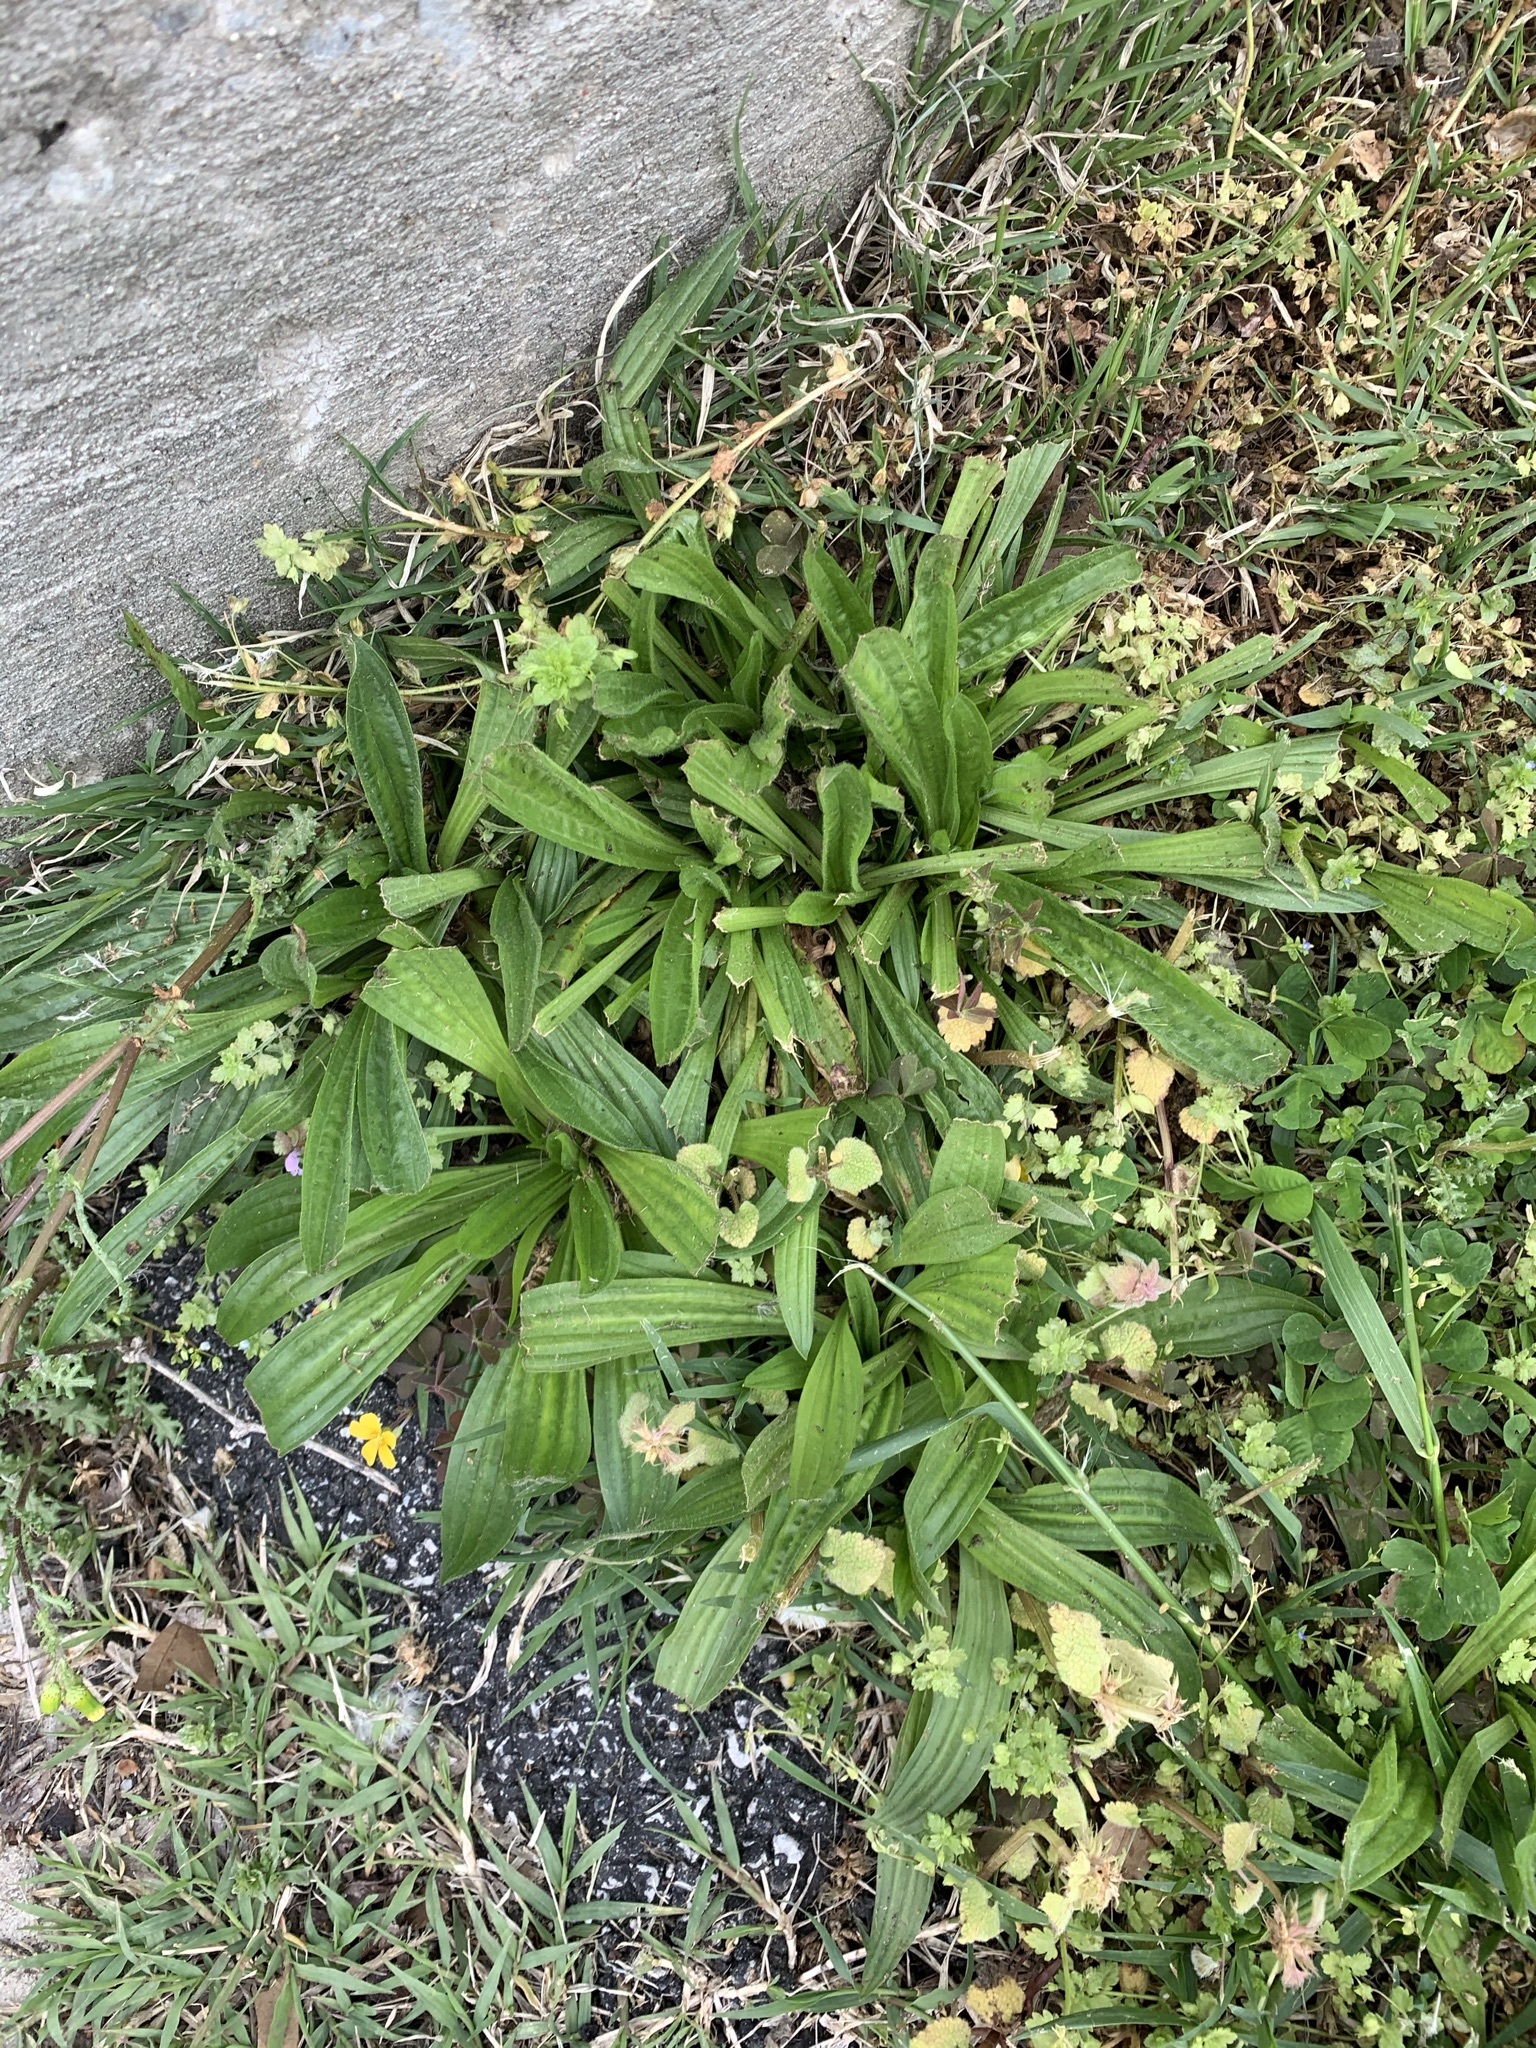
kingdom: Plantae
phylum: Tracheophyta
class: Magnoliopsida
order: Lamiales
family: Plantaginaceae
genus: Plantago
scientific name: Plantago lanceolata
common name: Ribwort plantain
